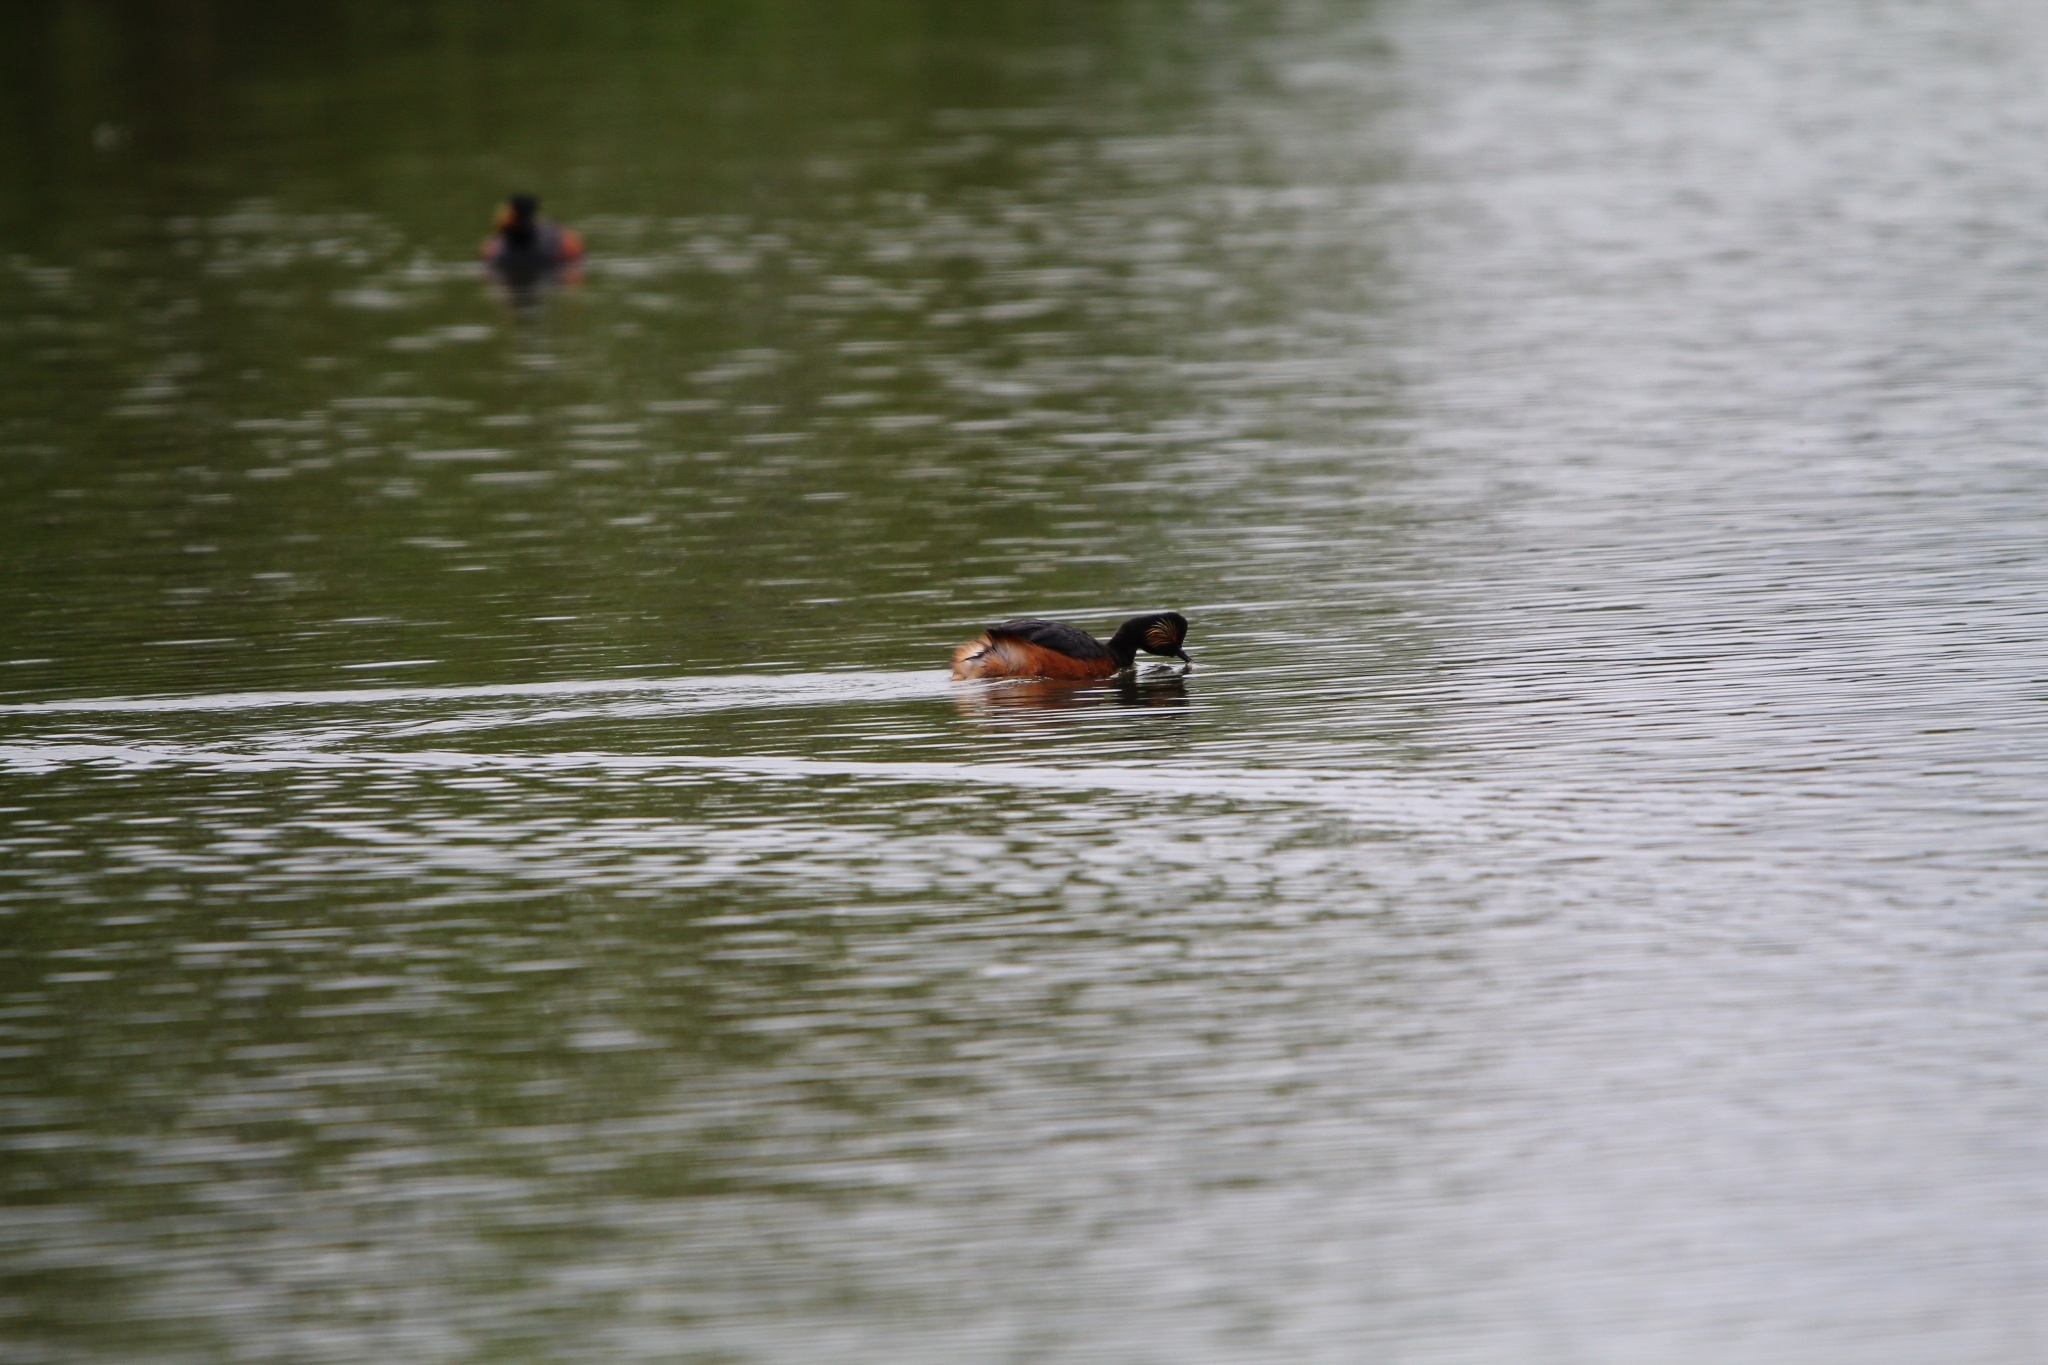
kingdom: Animalia
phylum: Chordata
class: Aves
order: Podicipediformes
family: Podicipedidae
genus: Podiceps
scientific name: Podiceps nigricollis
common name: Black-necked grebe
